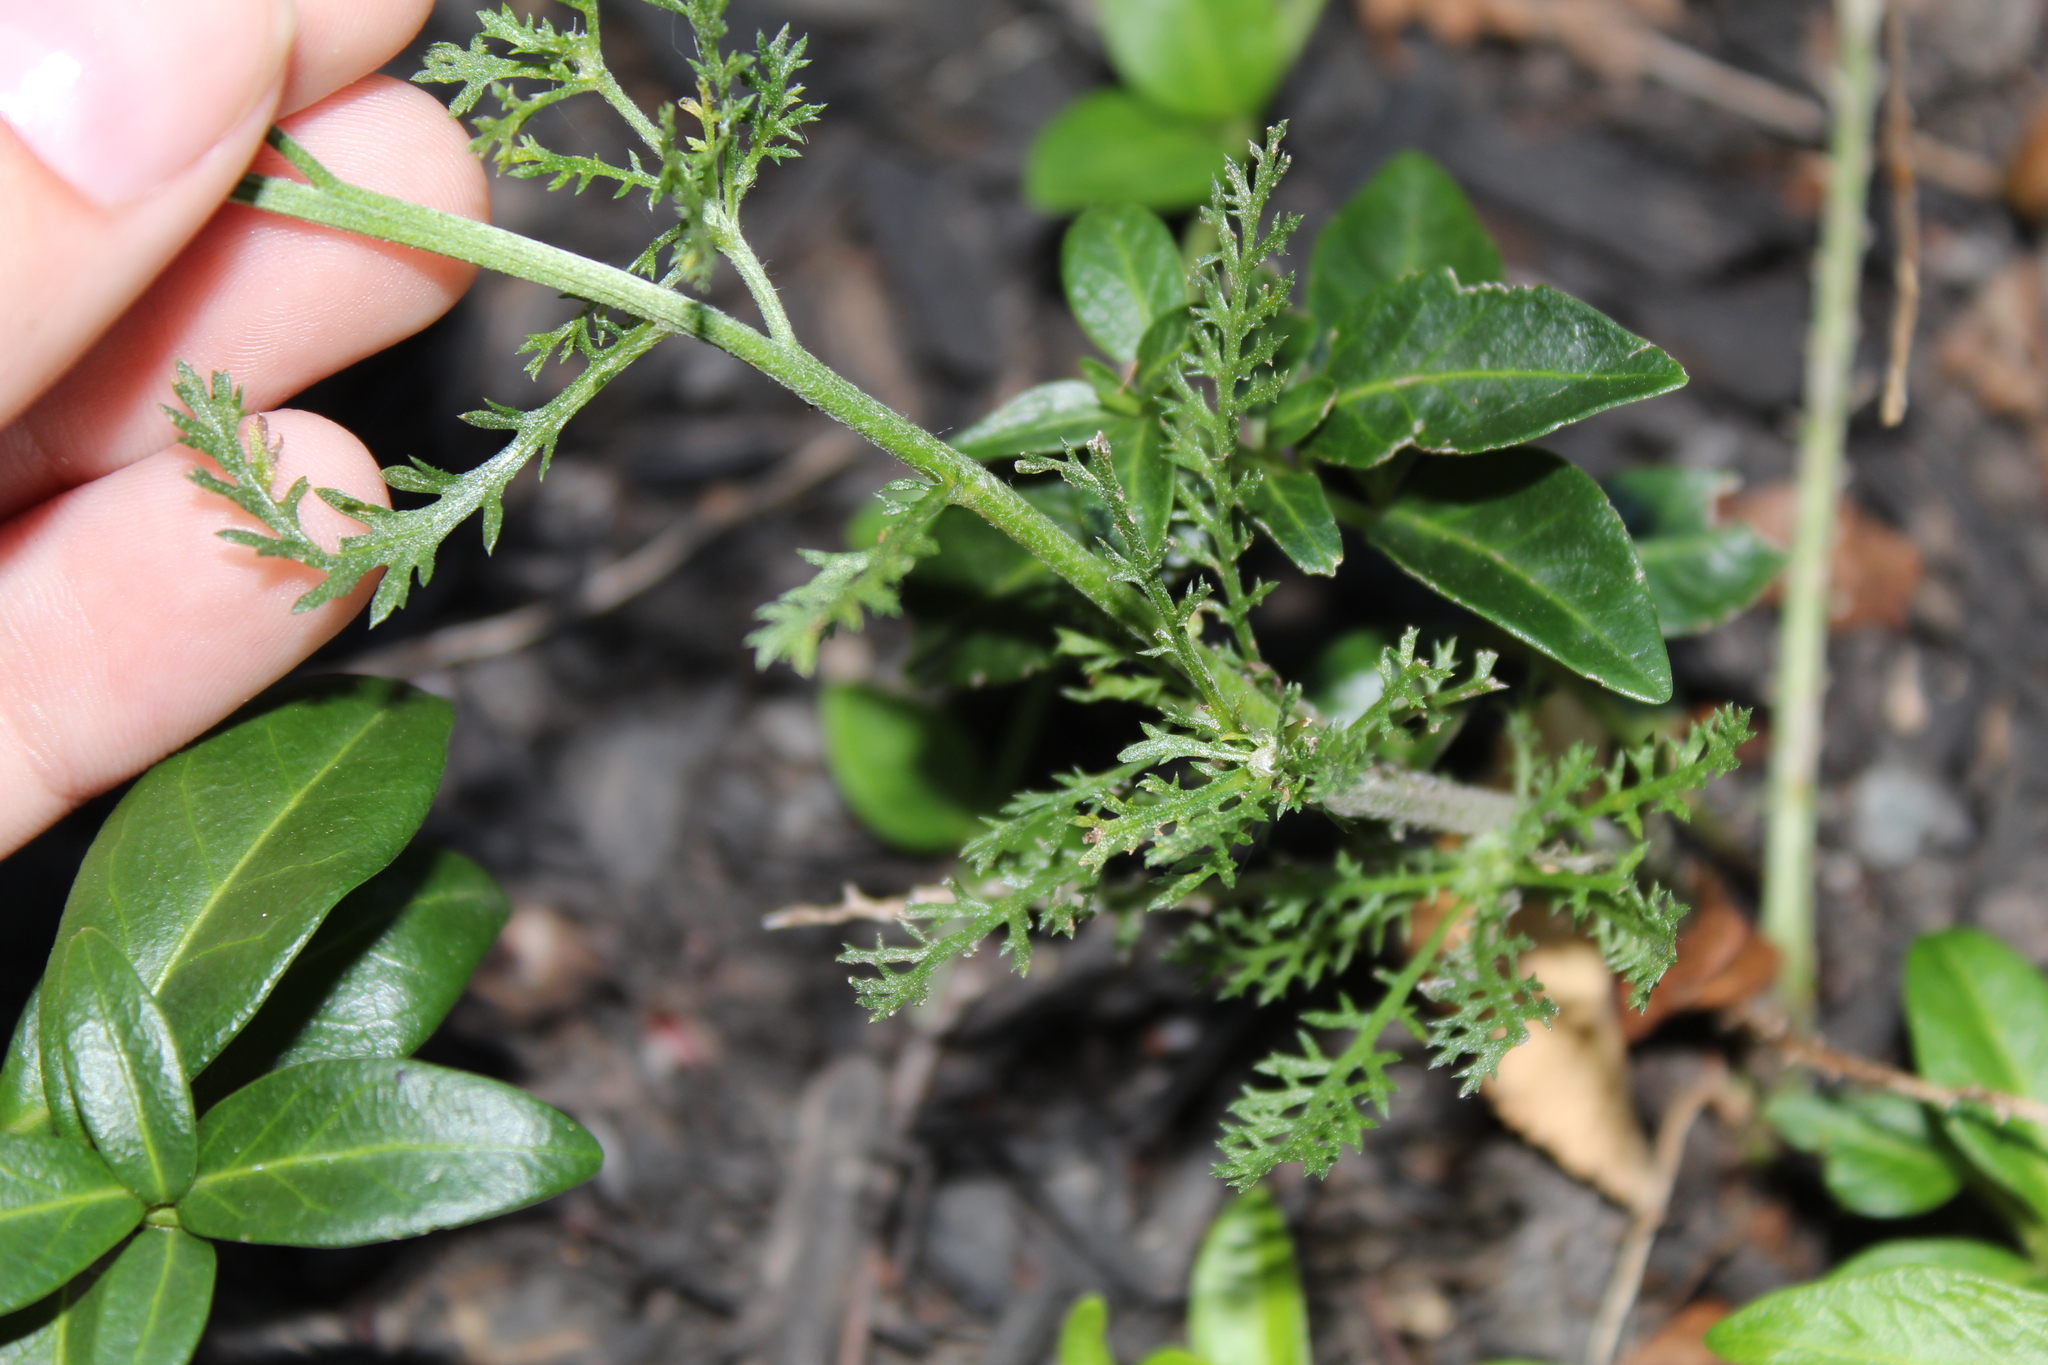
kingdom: Plantae
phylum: Tracheophyta
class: Magnoliopsida
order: Asterales
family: Asteraceae
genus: Achillea
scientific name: Achillea millefolium
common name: Yarrow
